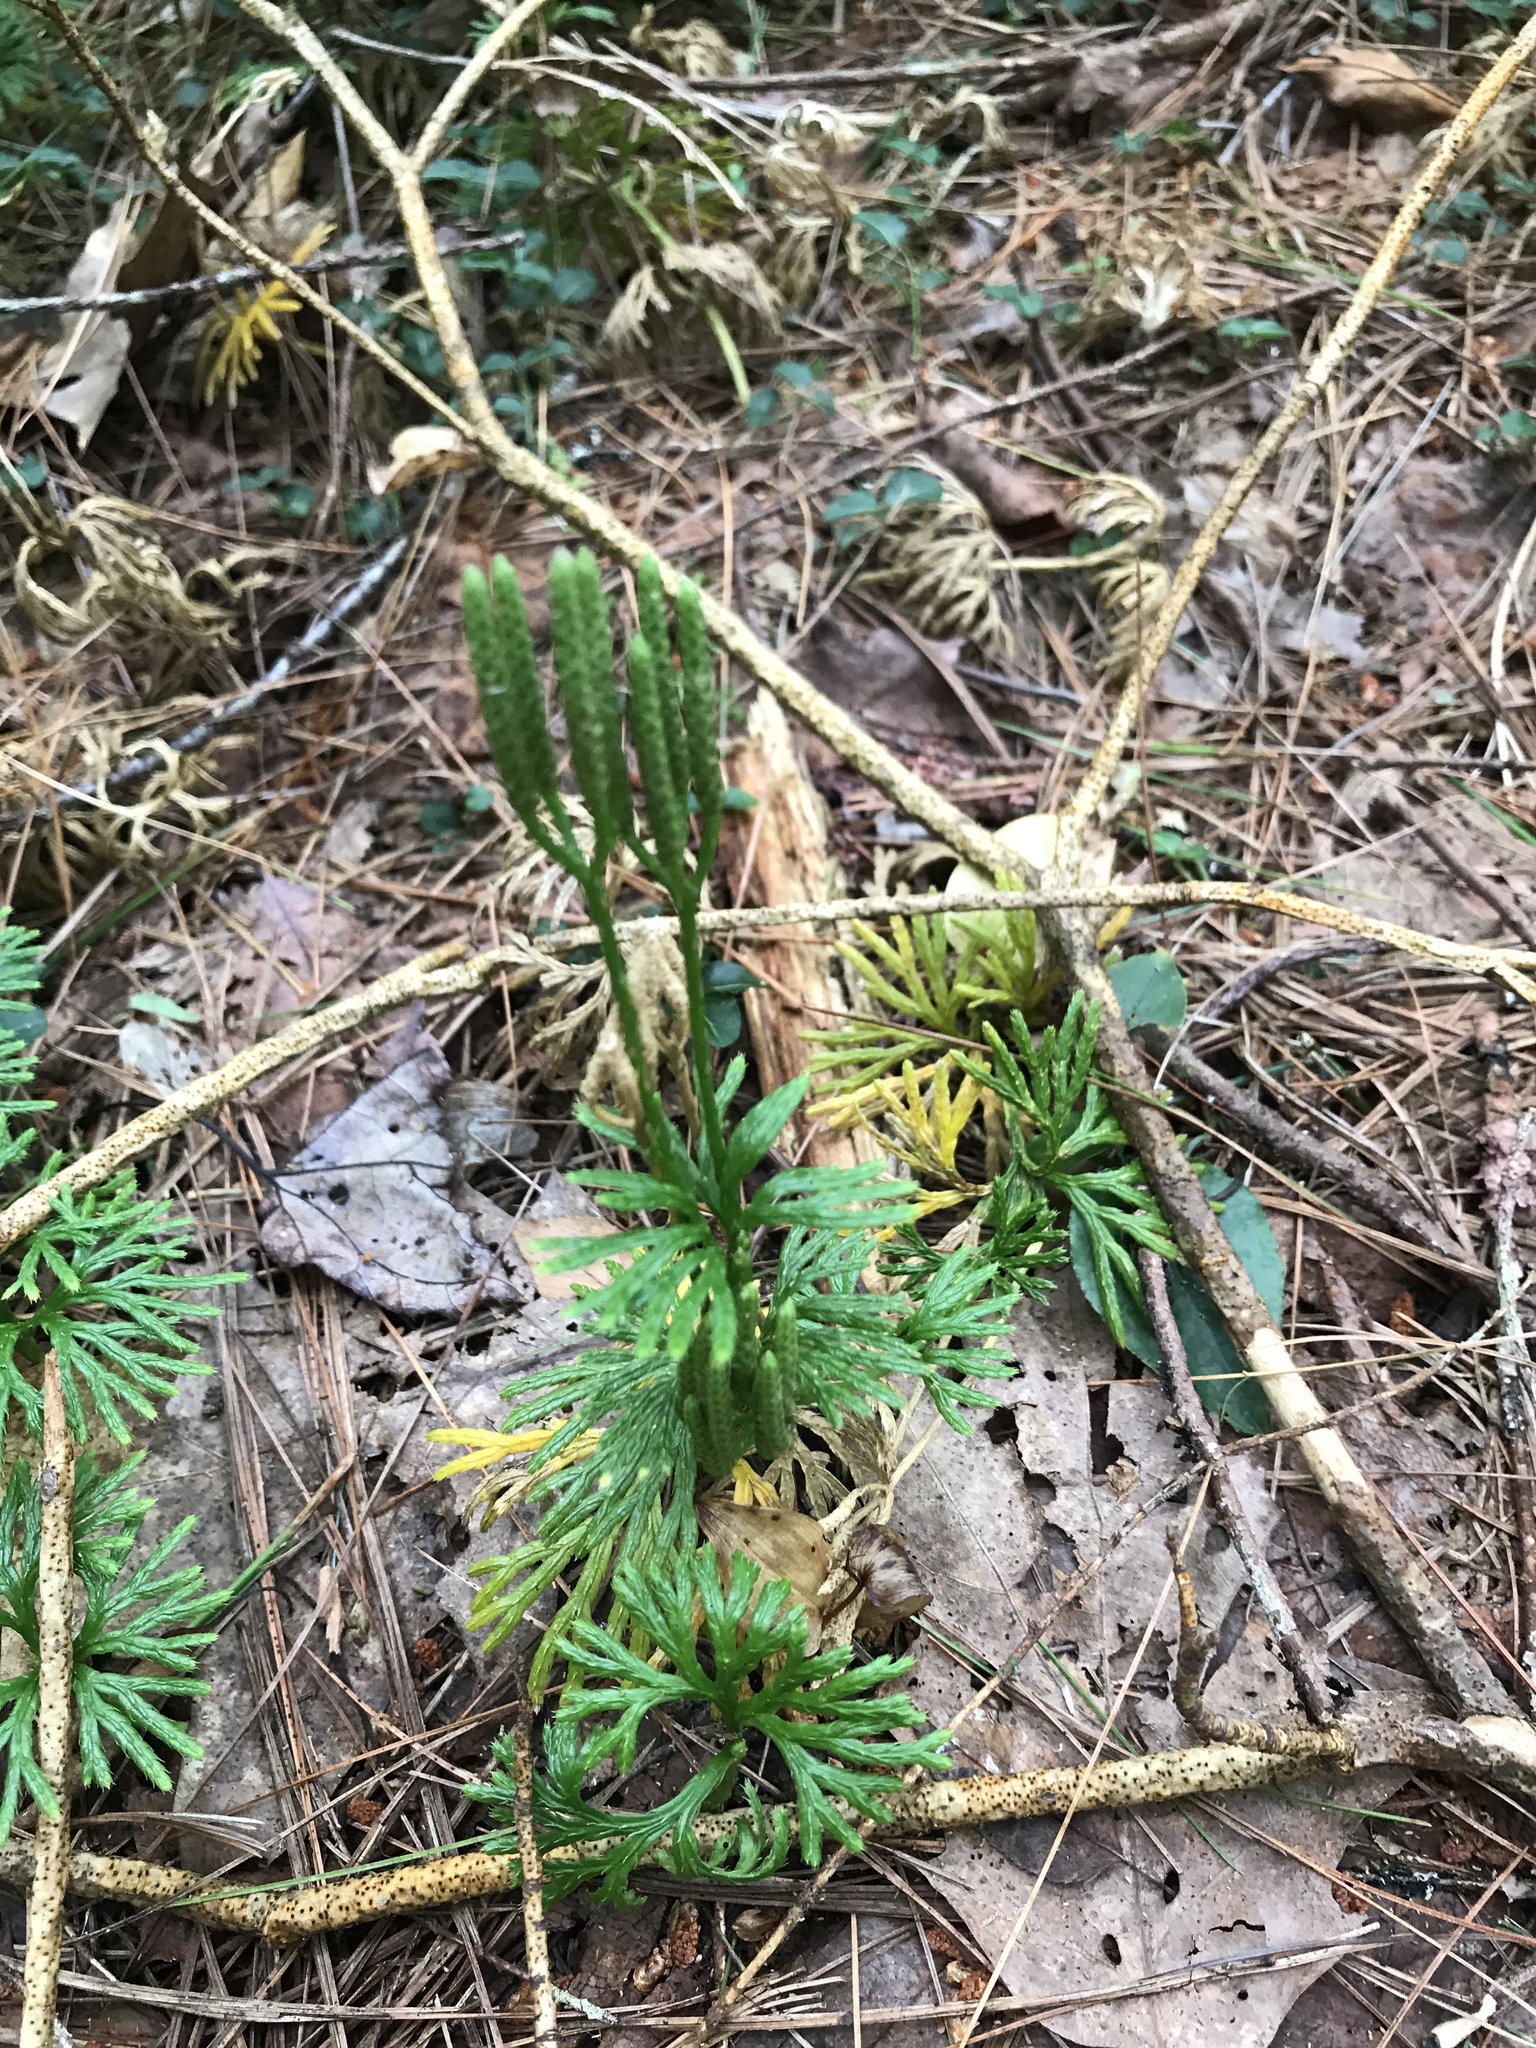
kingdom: Plantae
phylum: Tracheophyta
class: Lycopodiopsida
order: Lycopodiales
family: Lycopodiaceae
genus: Diphasiastrum
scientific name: Diphasiastrum digitatum
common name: Southern running-pine
